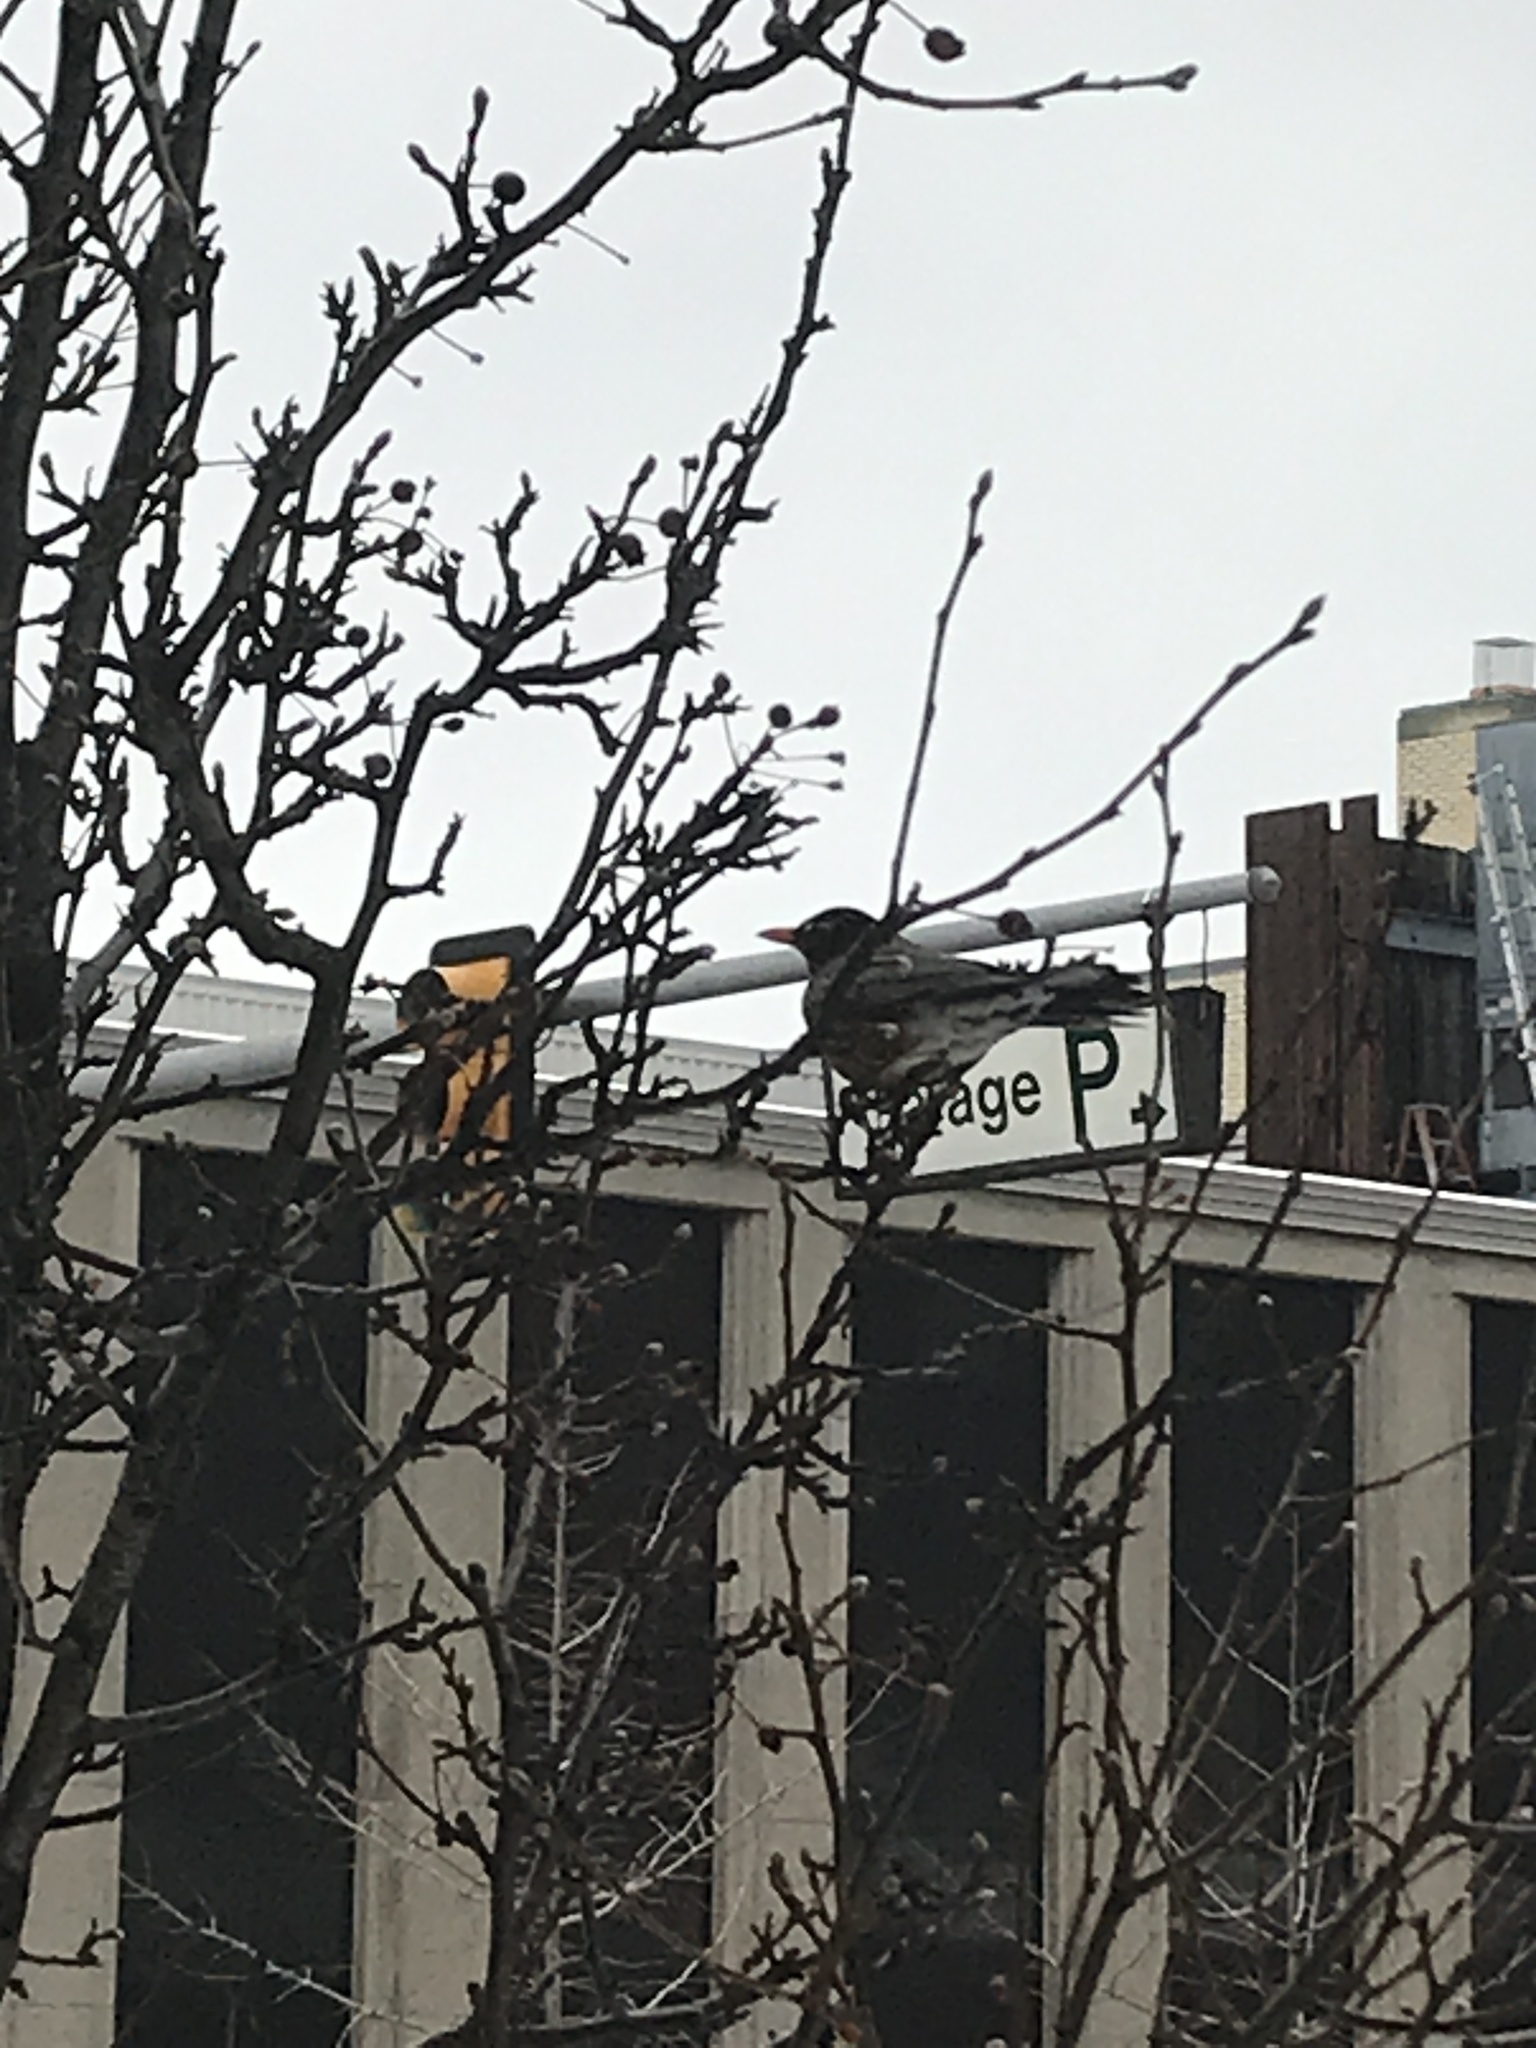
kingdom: Animalia
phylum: Chordata
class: Aves
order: Passeriformes
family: Turdidae
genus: Turdus
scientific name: Turdus migratorius
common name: American robin
